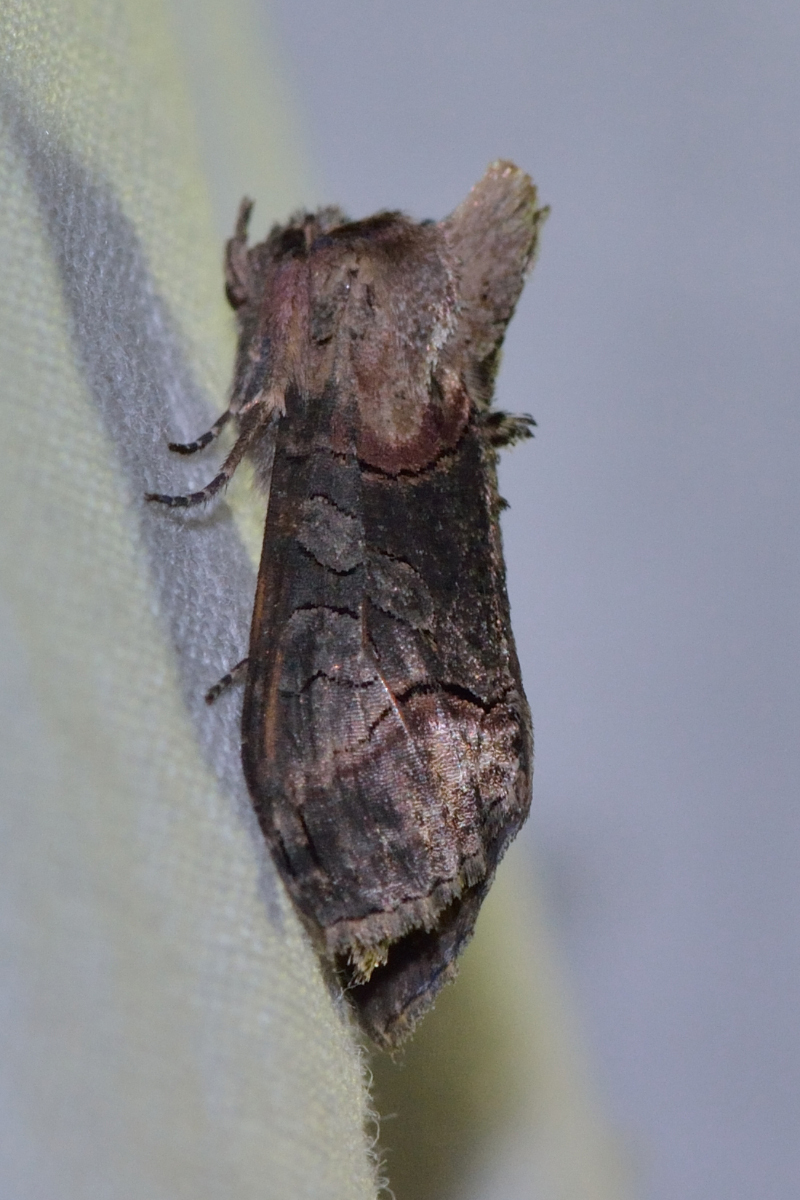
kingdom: Animalia
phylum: Arthropoda
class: Insecta
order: Lepidoptera
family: Noctuidae
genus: Abrostola
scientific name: Abrostola triplasia
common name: Dark spectacle
